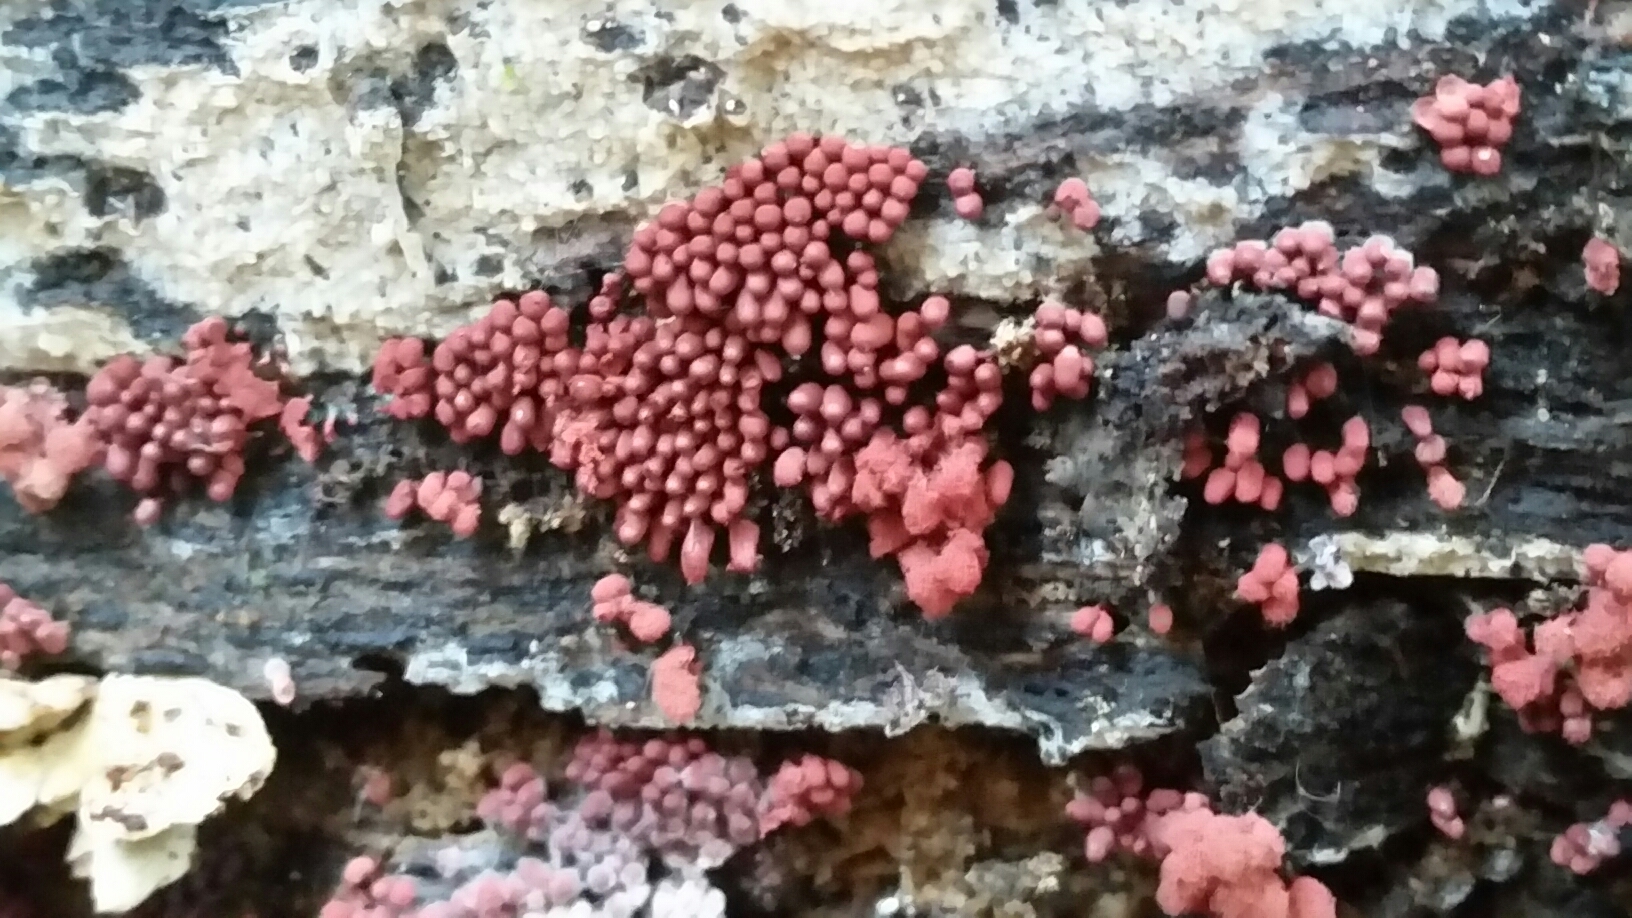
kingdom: Protozoa
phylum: Mycetozoa
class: Myxomycetes
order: Trichiales
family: Arcyriaceae
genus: Arcyria
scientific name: Arcyria denudata
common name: Carnival candy slime mold
